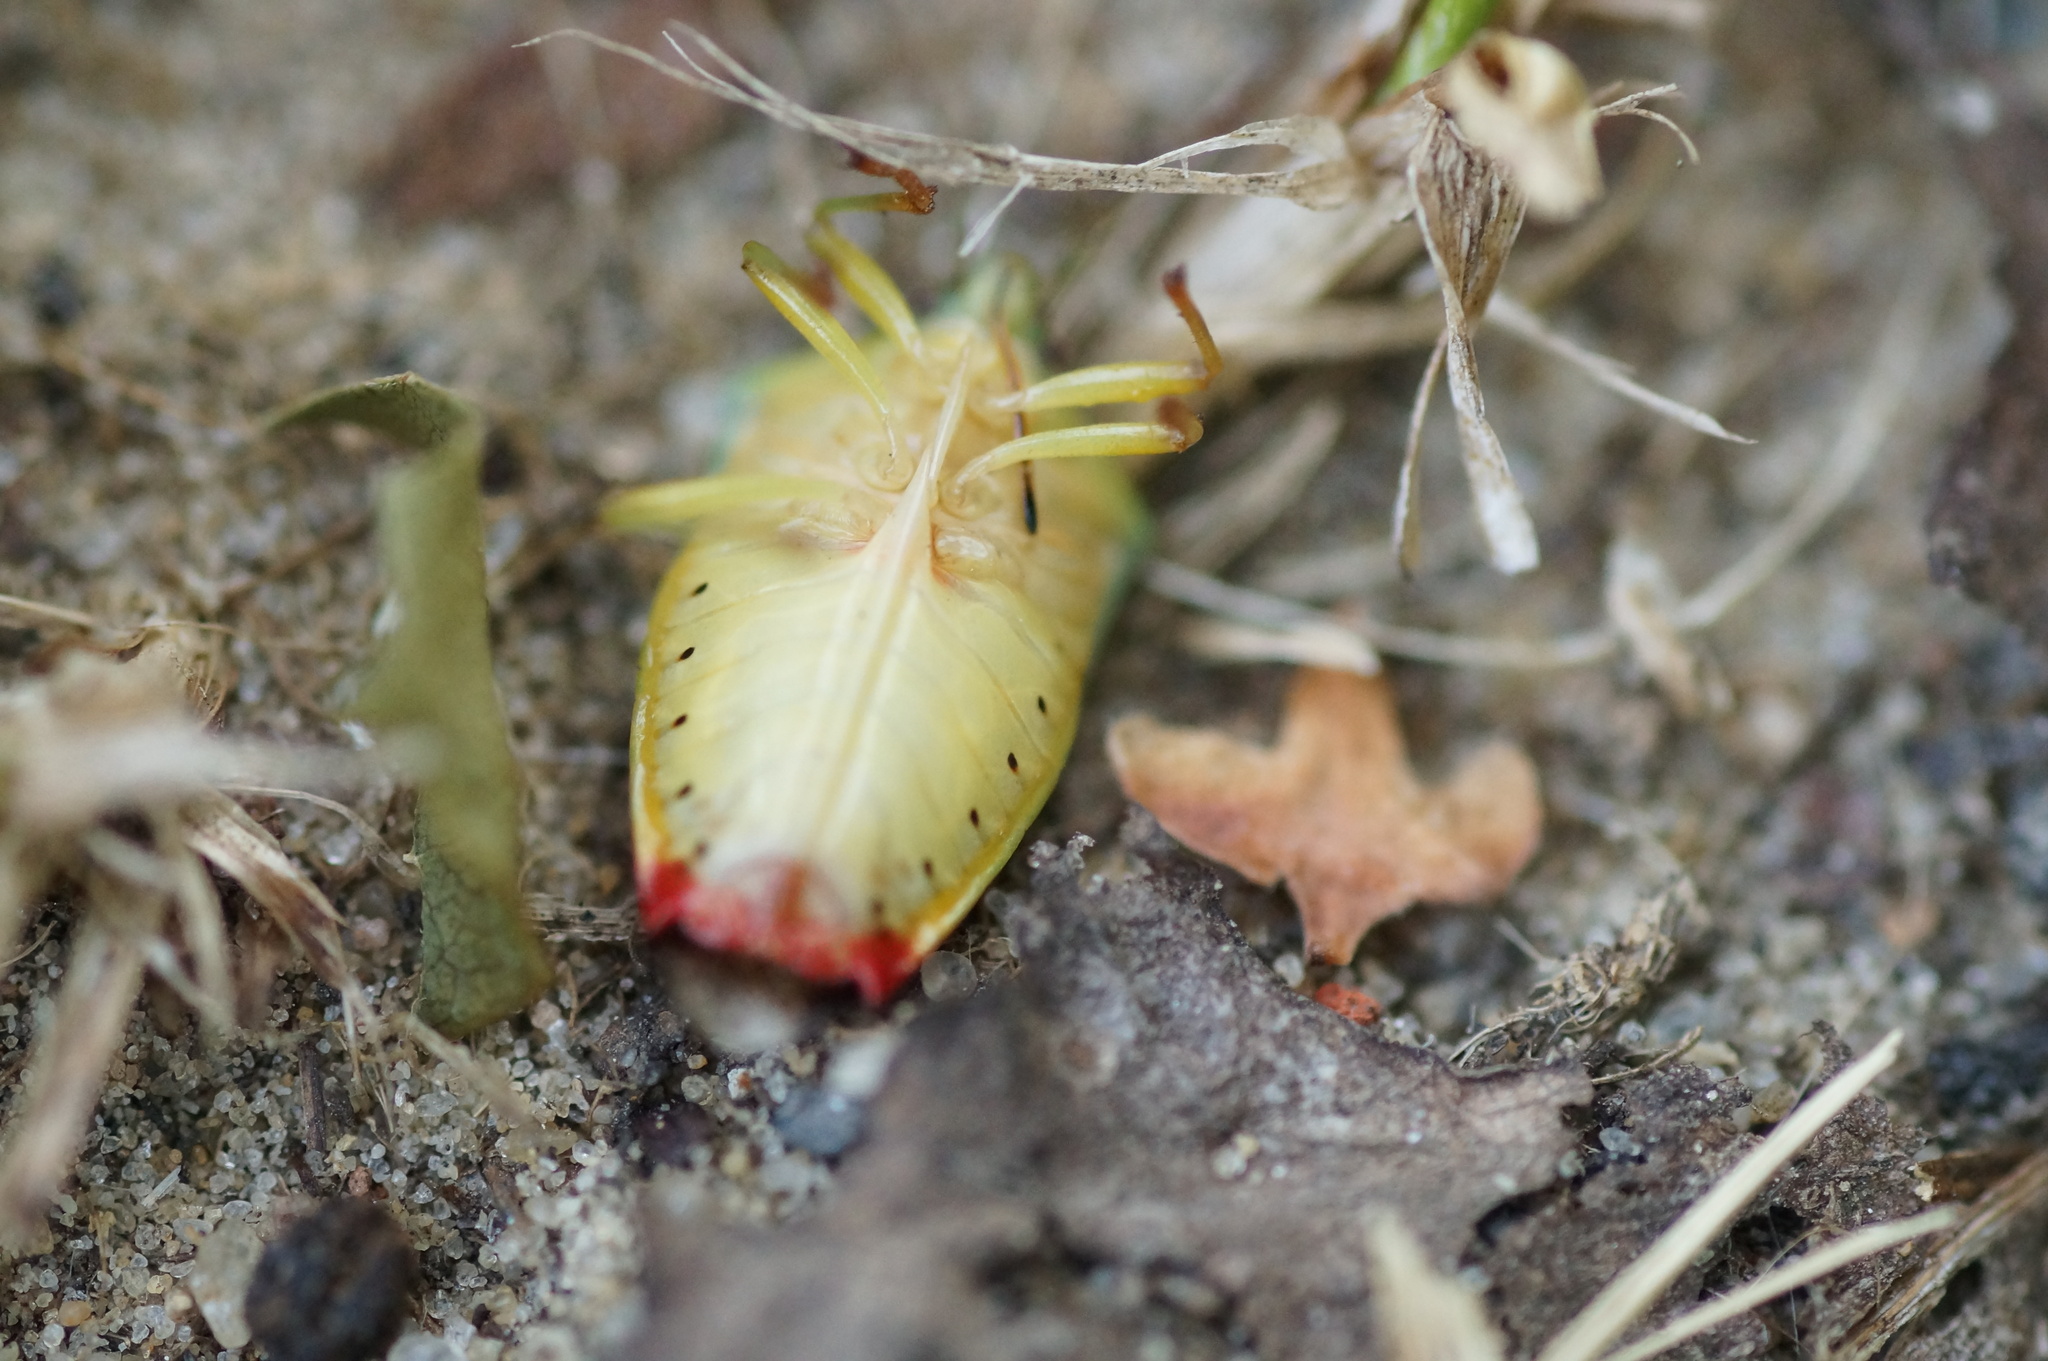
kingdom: Animalia
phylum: Arthropoda
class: Insecta
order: Hemiptera
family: Acanthosomatidae
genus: Elasmostethus
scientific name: Elasmostethus
